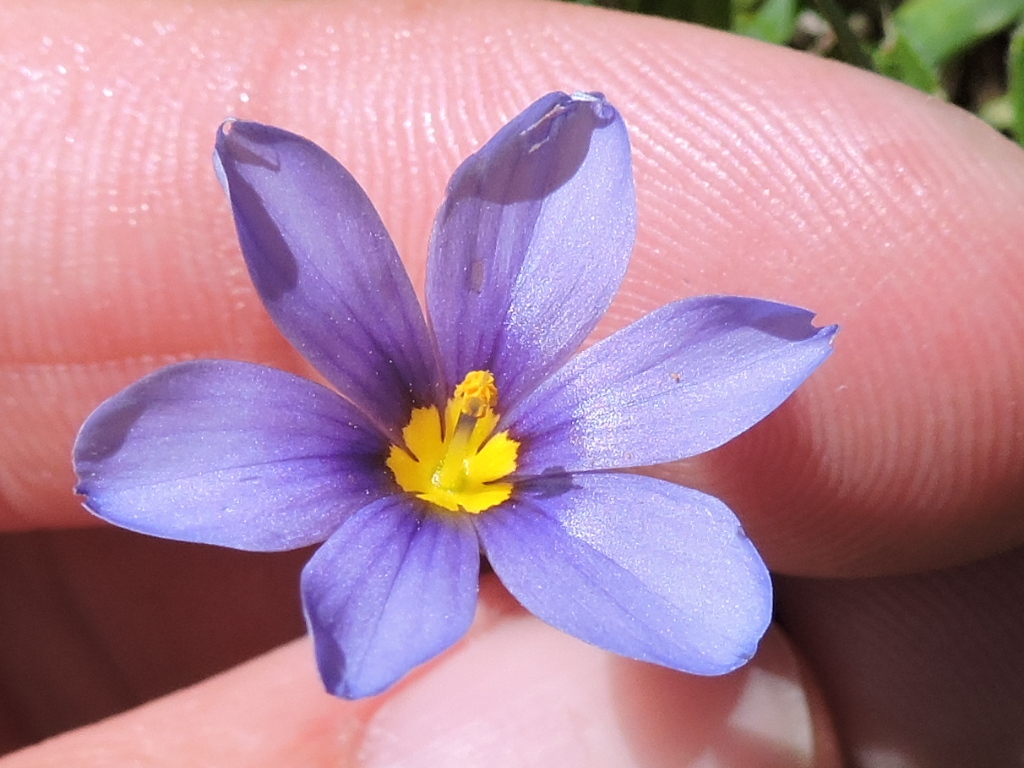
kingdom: Plantae
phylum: Tracheophyta
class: Liliopsida
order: Asparagales
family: Iridaceae
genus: Sisyrinchium
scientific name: Sisyrinchium pruinosum
